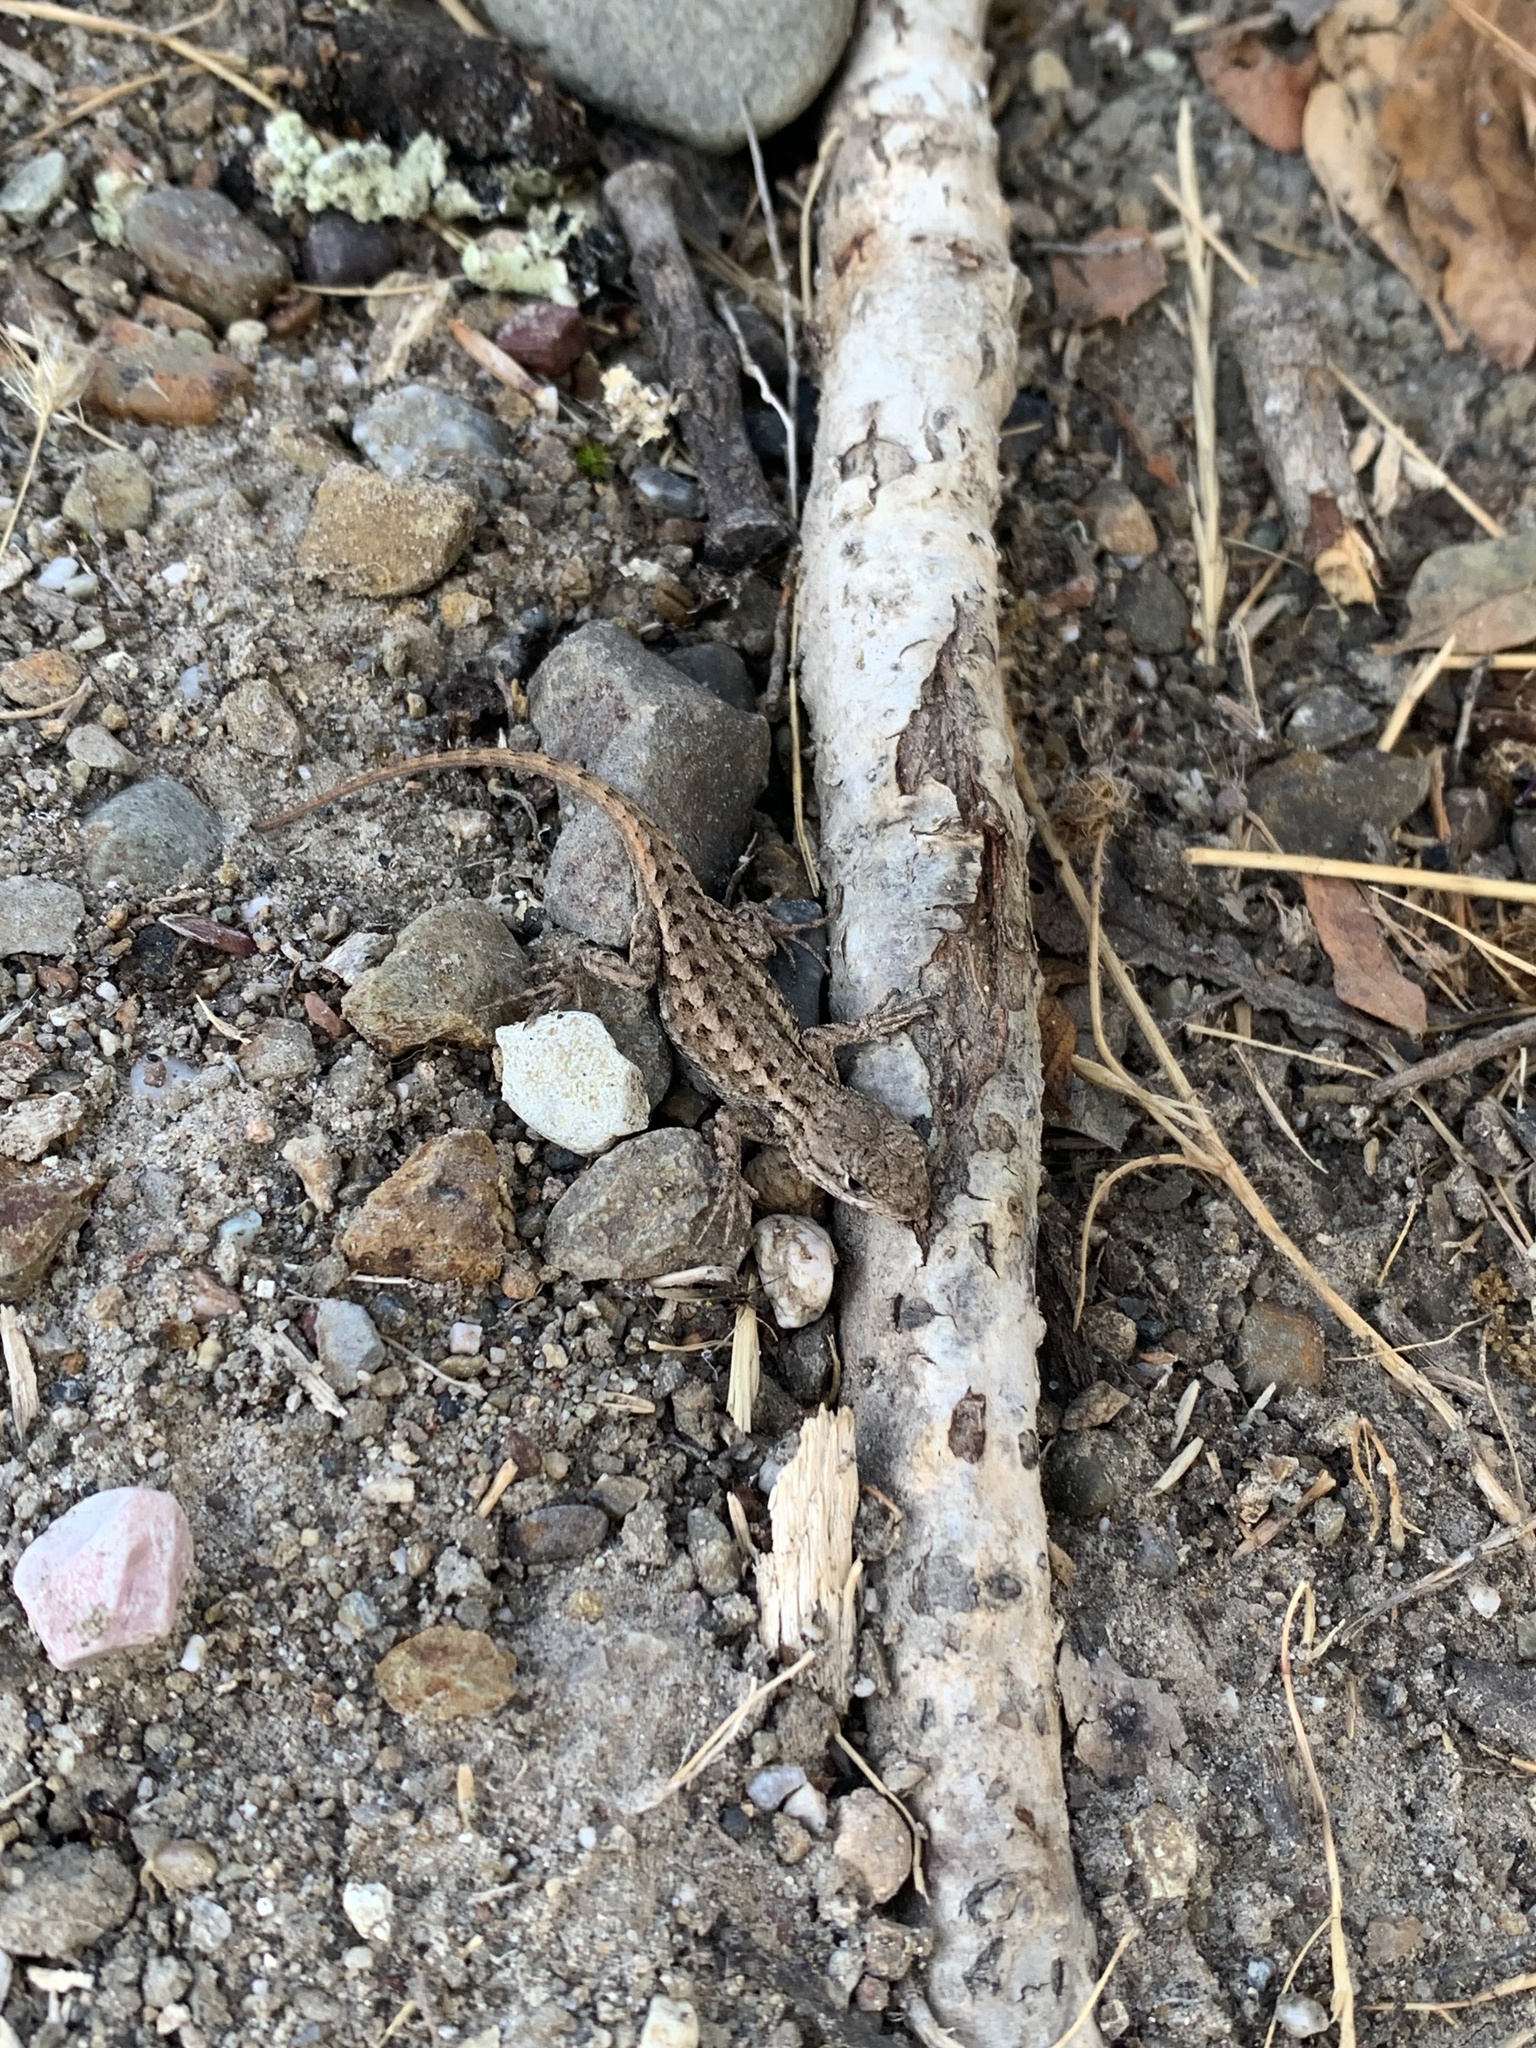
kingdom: Animalia
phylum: Chordata
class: Squamata
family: Phrynosomatidae
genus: Sceloporus
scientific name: Sceloporus occidentalis
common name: Western fence lizard
